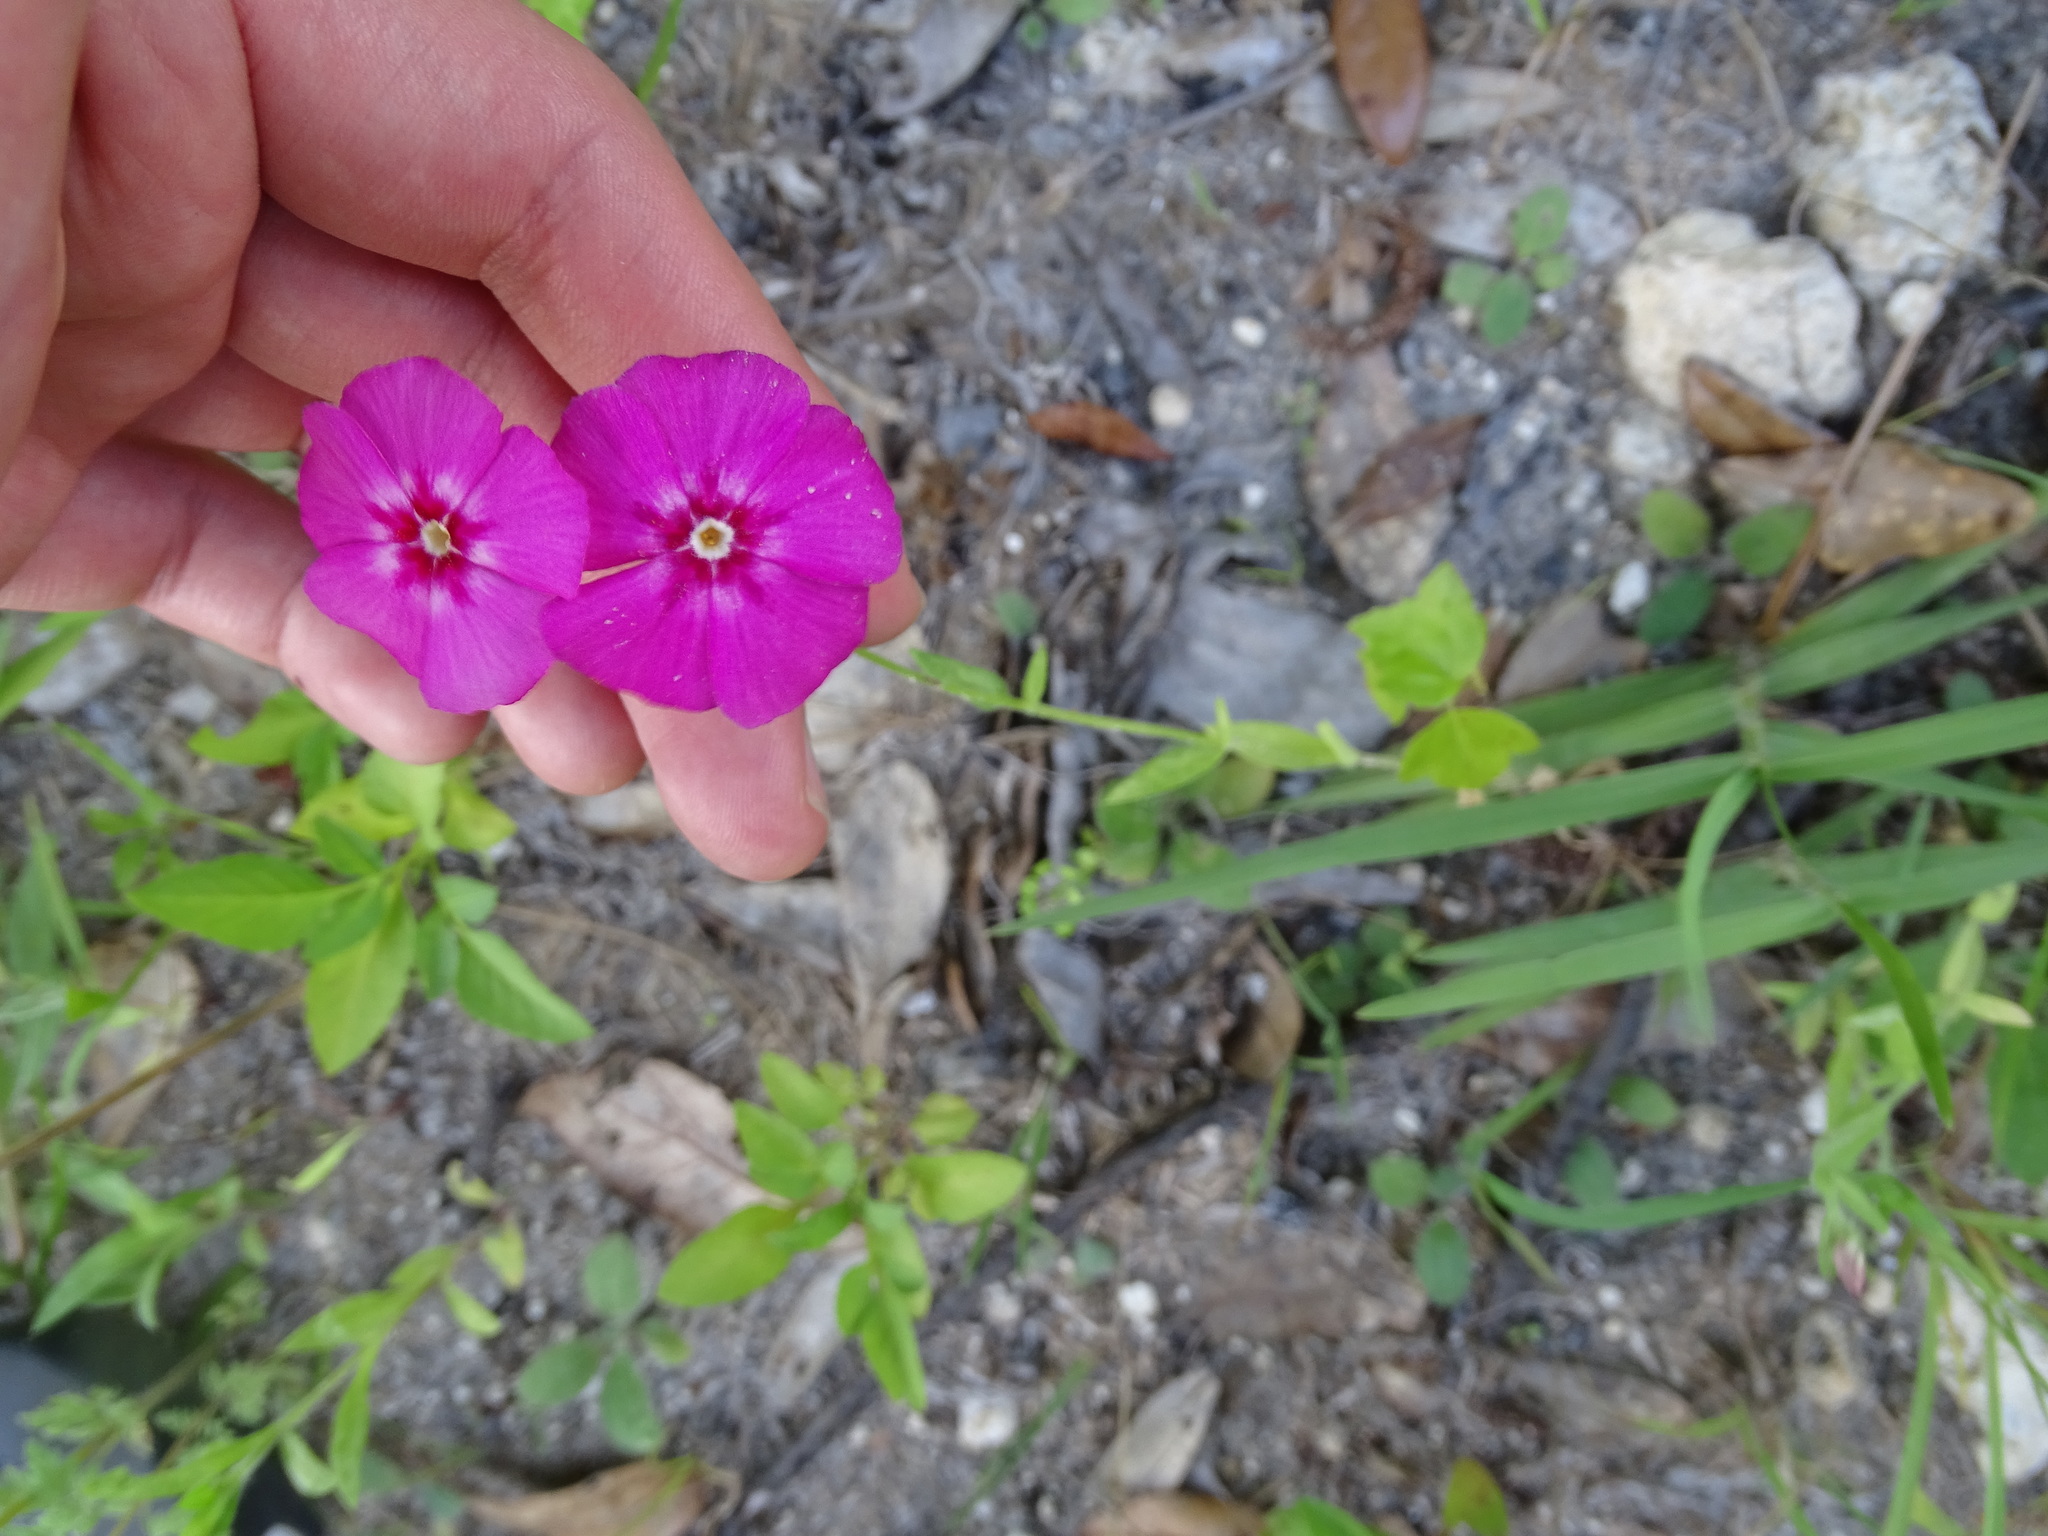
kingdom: Plantae
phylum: Tracheophyta
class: Magnoliopsida
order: Ericales
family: Polemoniaceae
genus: Phlox
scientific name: Phlox drummondii
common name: Drummond's phlox
